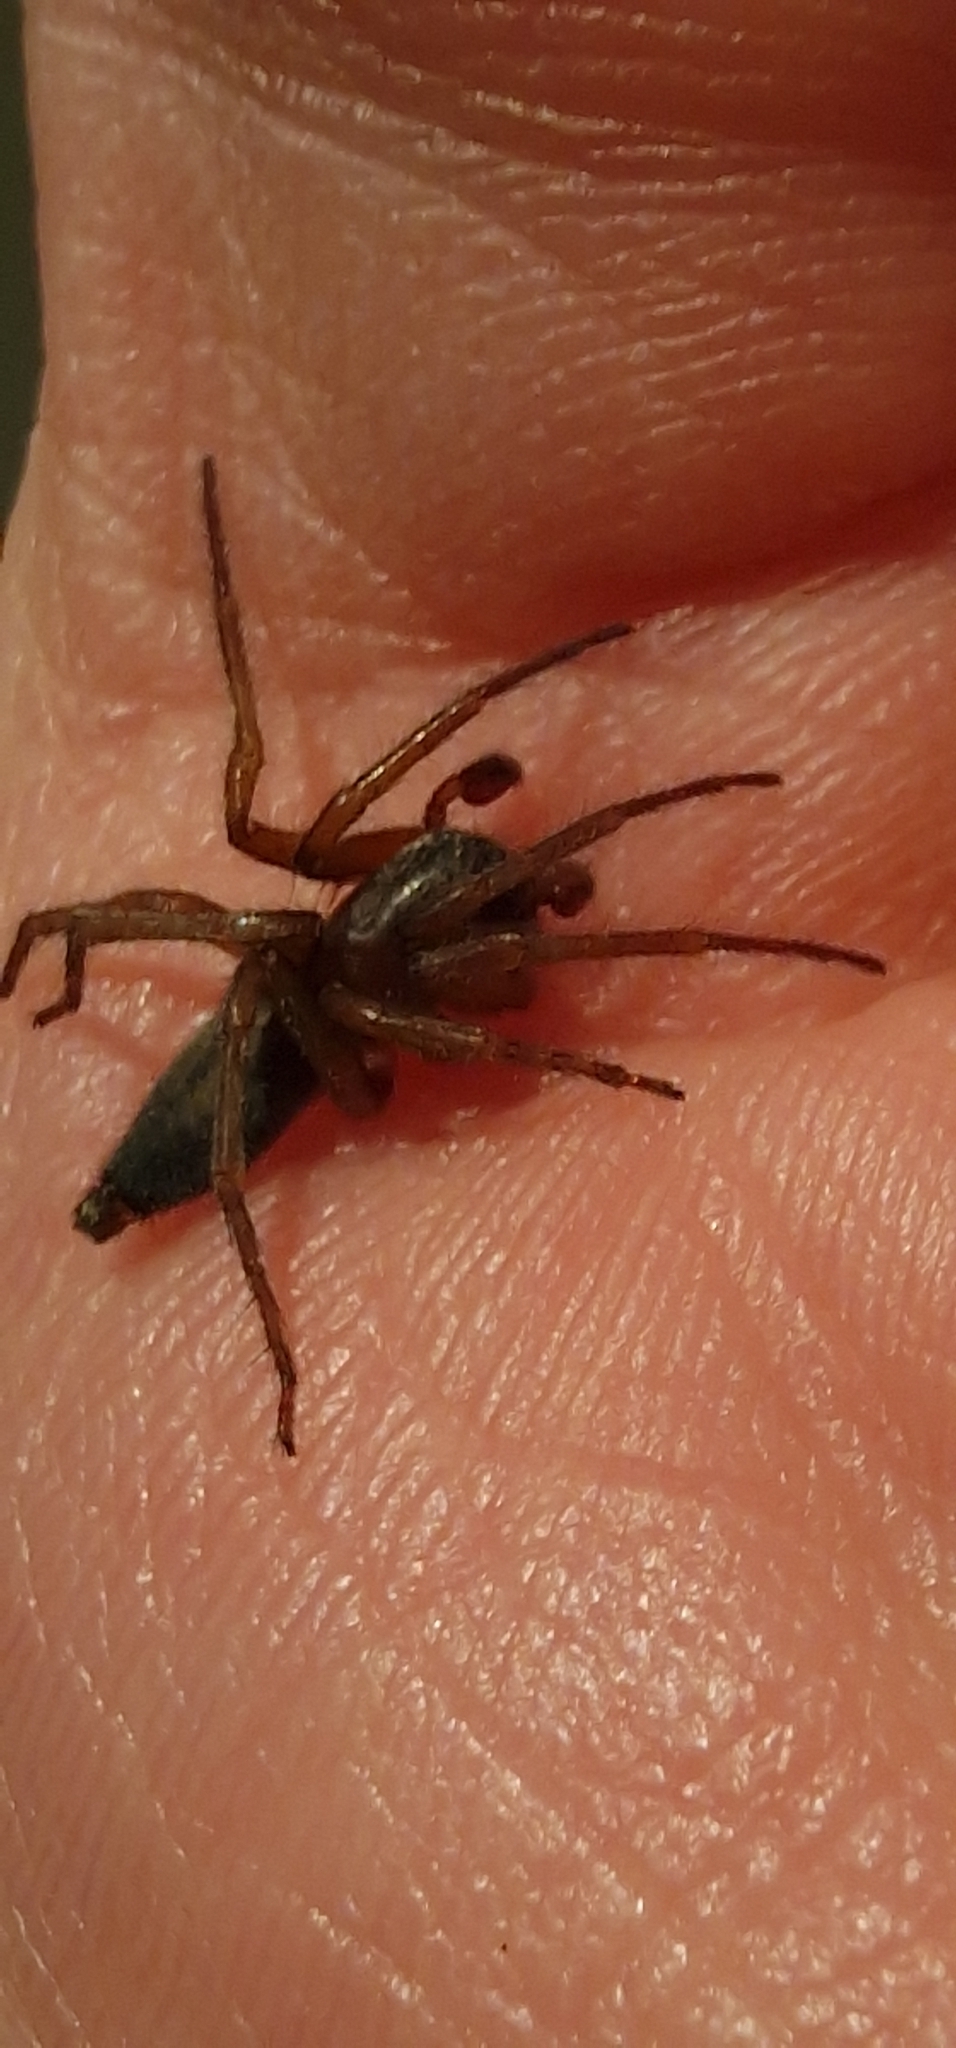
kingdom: Animalia
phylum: Arthropoda
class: Arachnida
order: Araneae
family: Clubionidae
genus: Clubiona
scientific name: Clubiona corticalis
